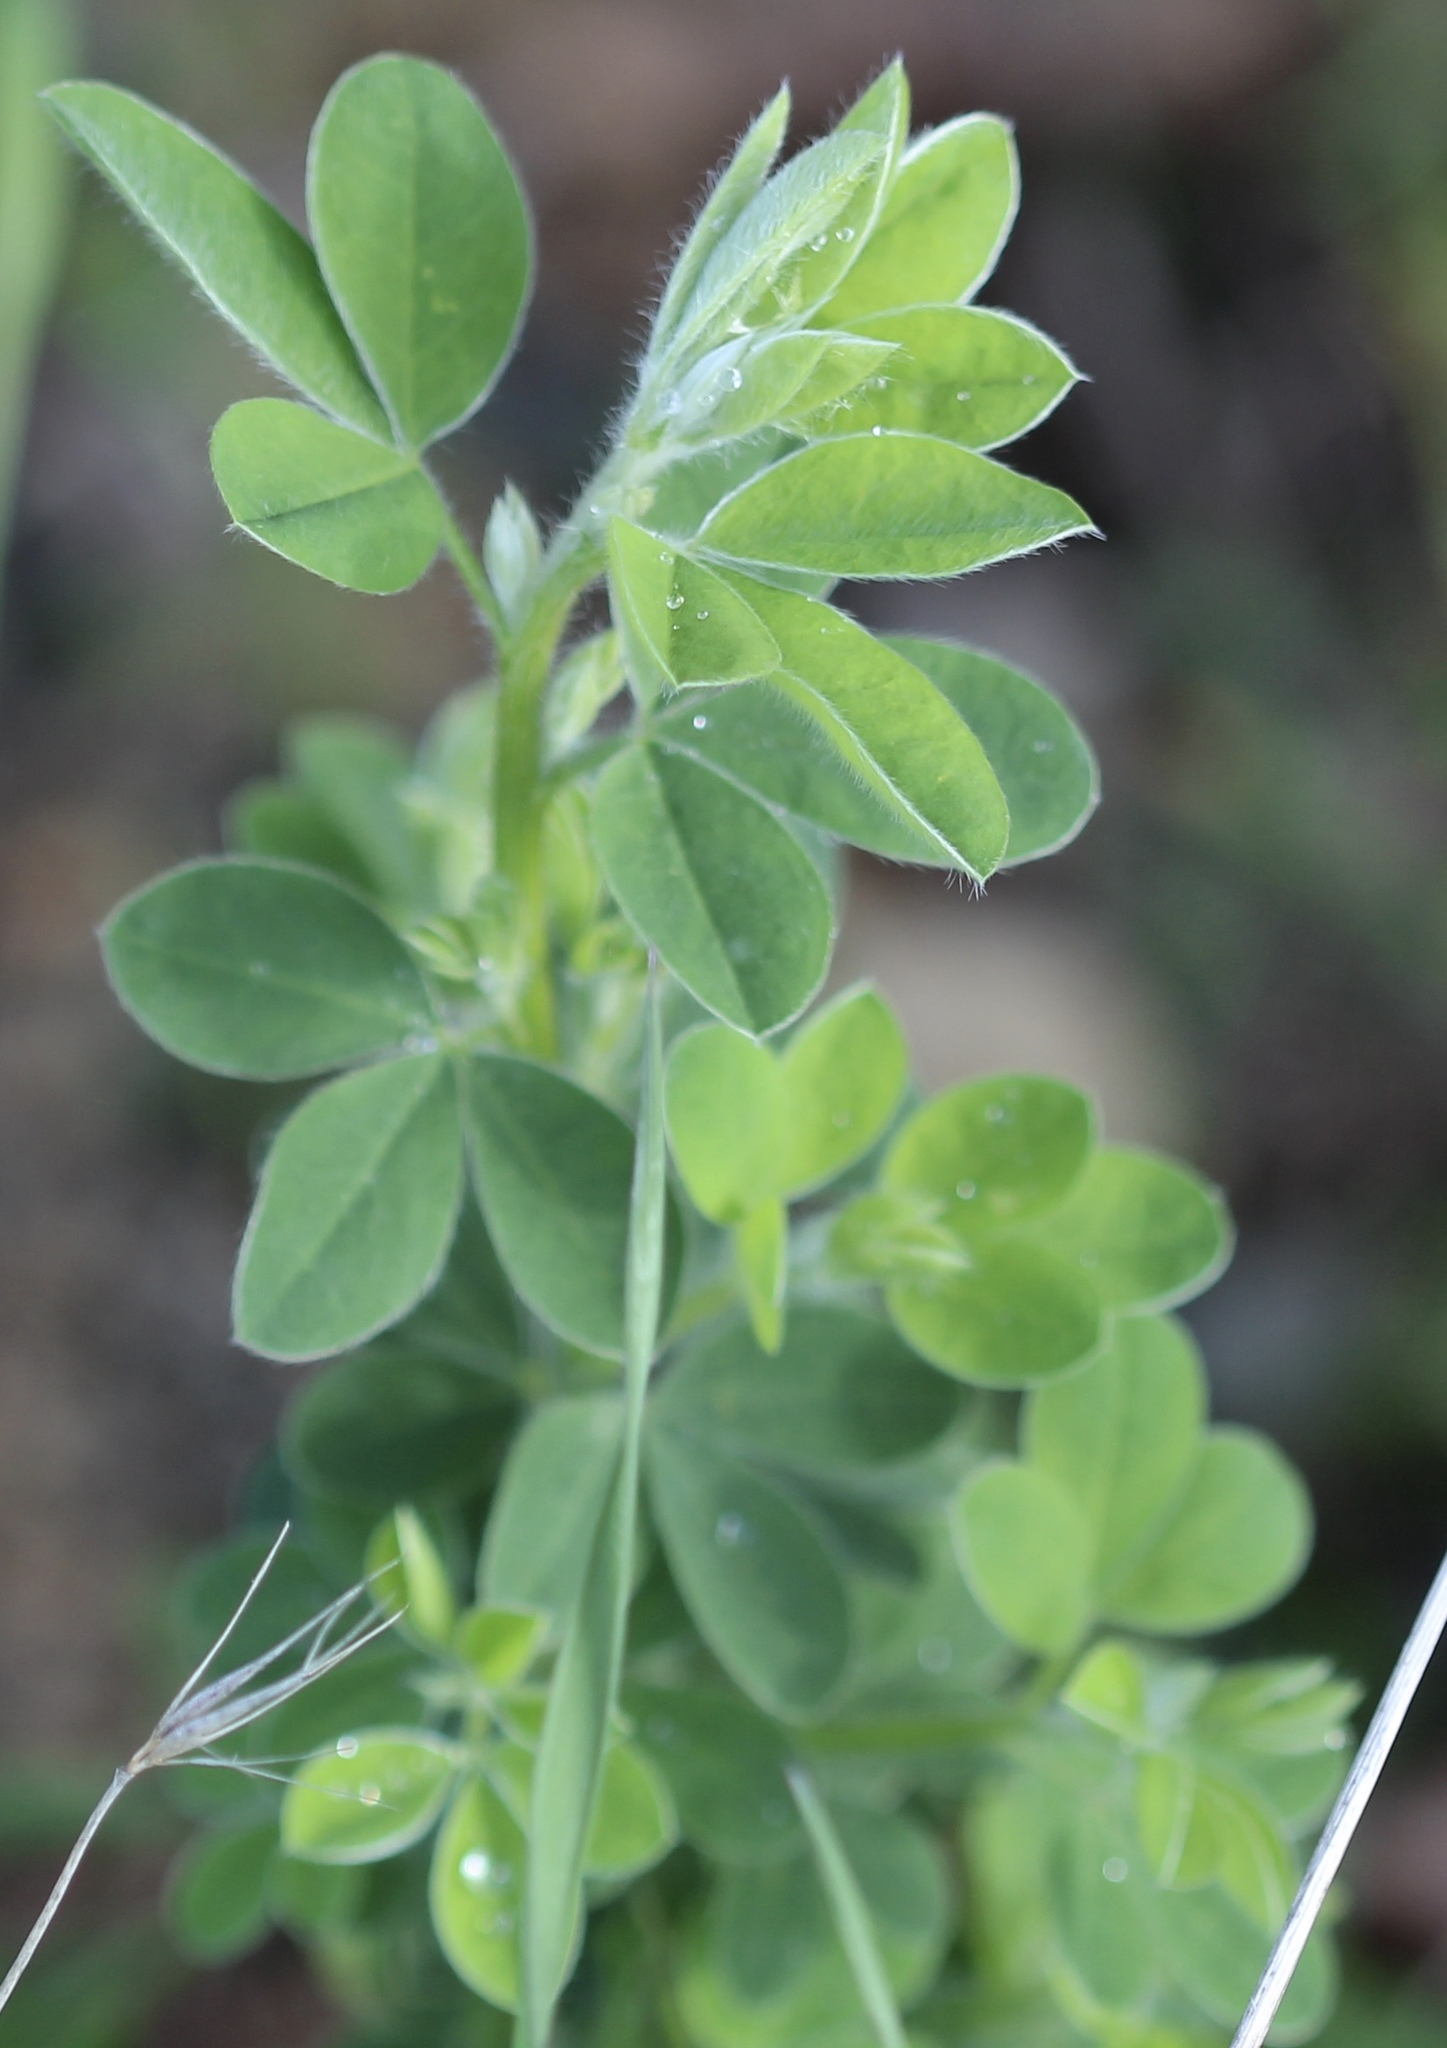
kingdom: Plantae
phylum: Tracheophyta
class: Magnoliopsida
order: Fabales
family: Fabaceae
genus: Genista
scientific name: Genista monspessulana
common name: Montpellier broom
